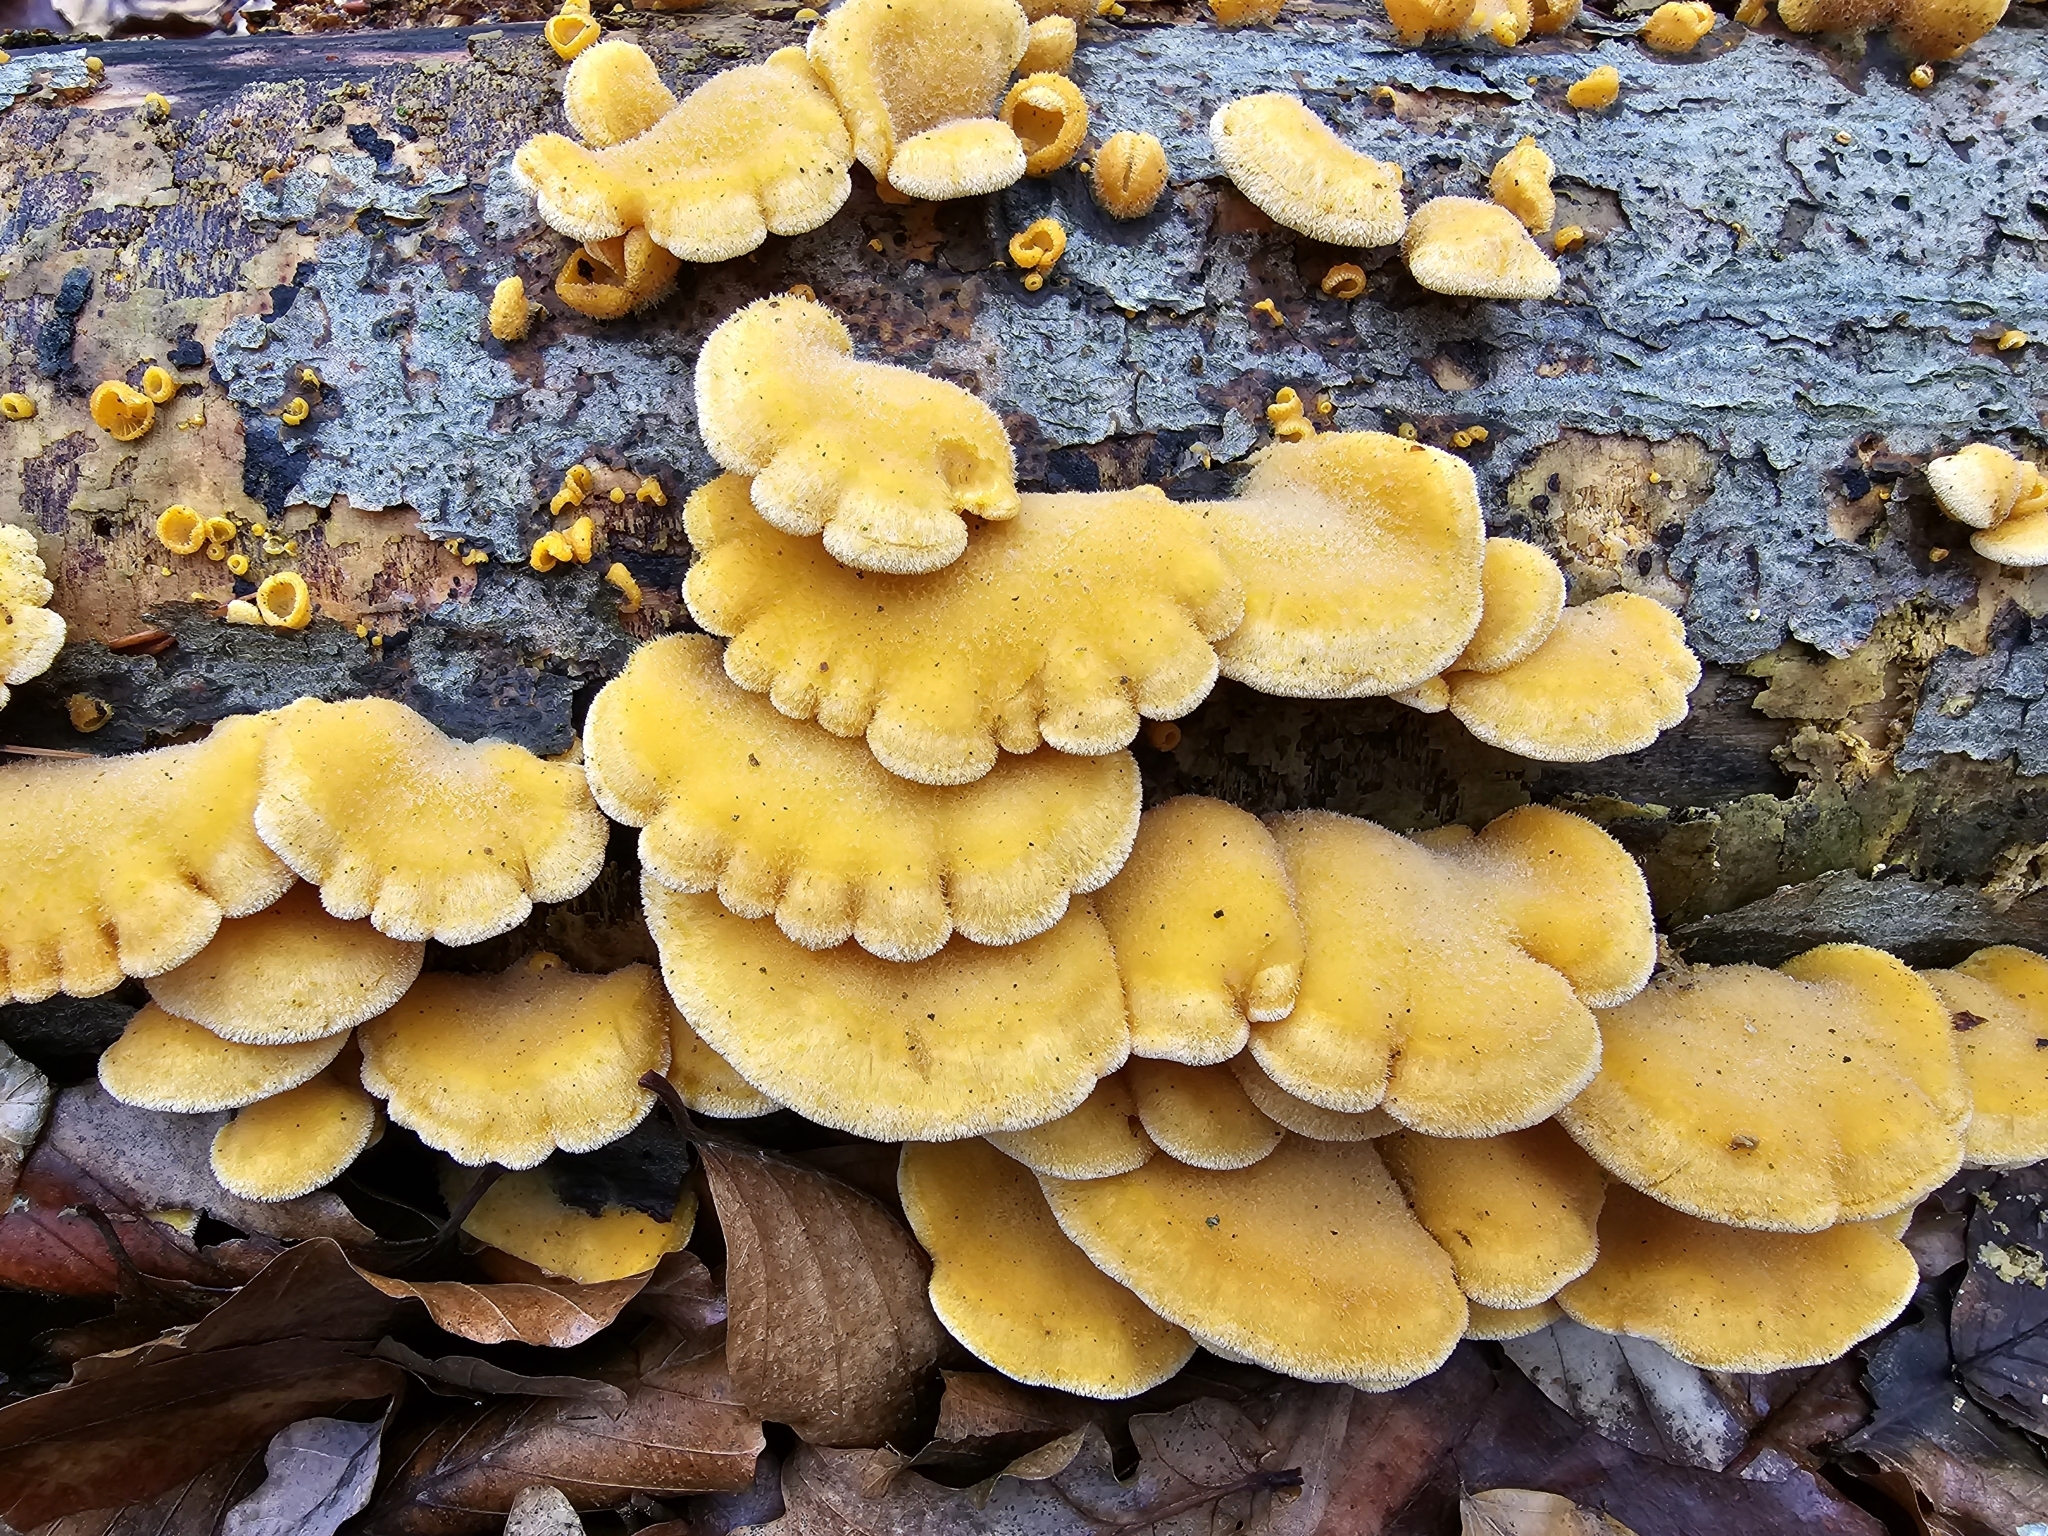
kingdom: Fungi
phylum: Basidiomycota
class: Agaricomycetes
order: Agaricales
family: Phyllotopsidaceae
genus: Phyllotopsis
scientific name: Phyllotopsis nidulans
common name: Orange mock oyster
